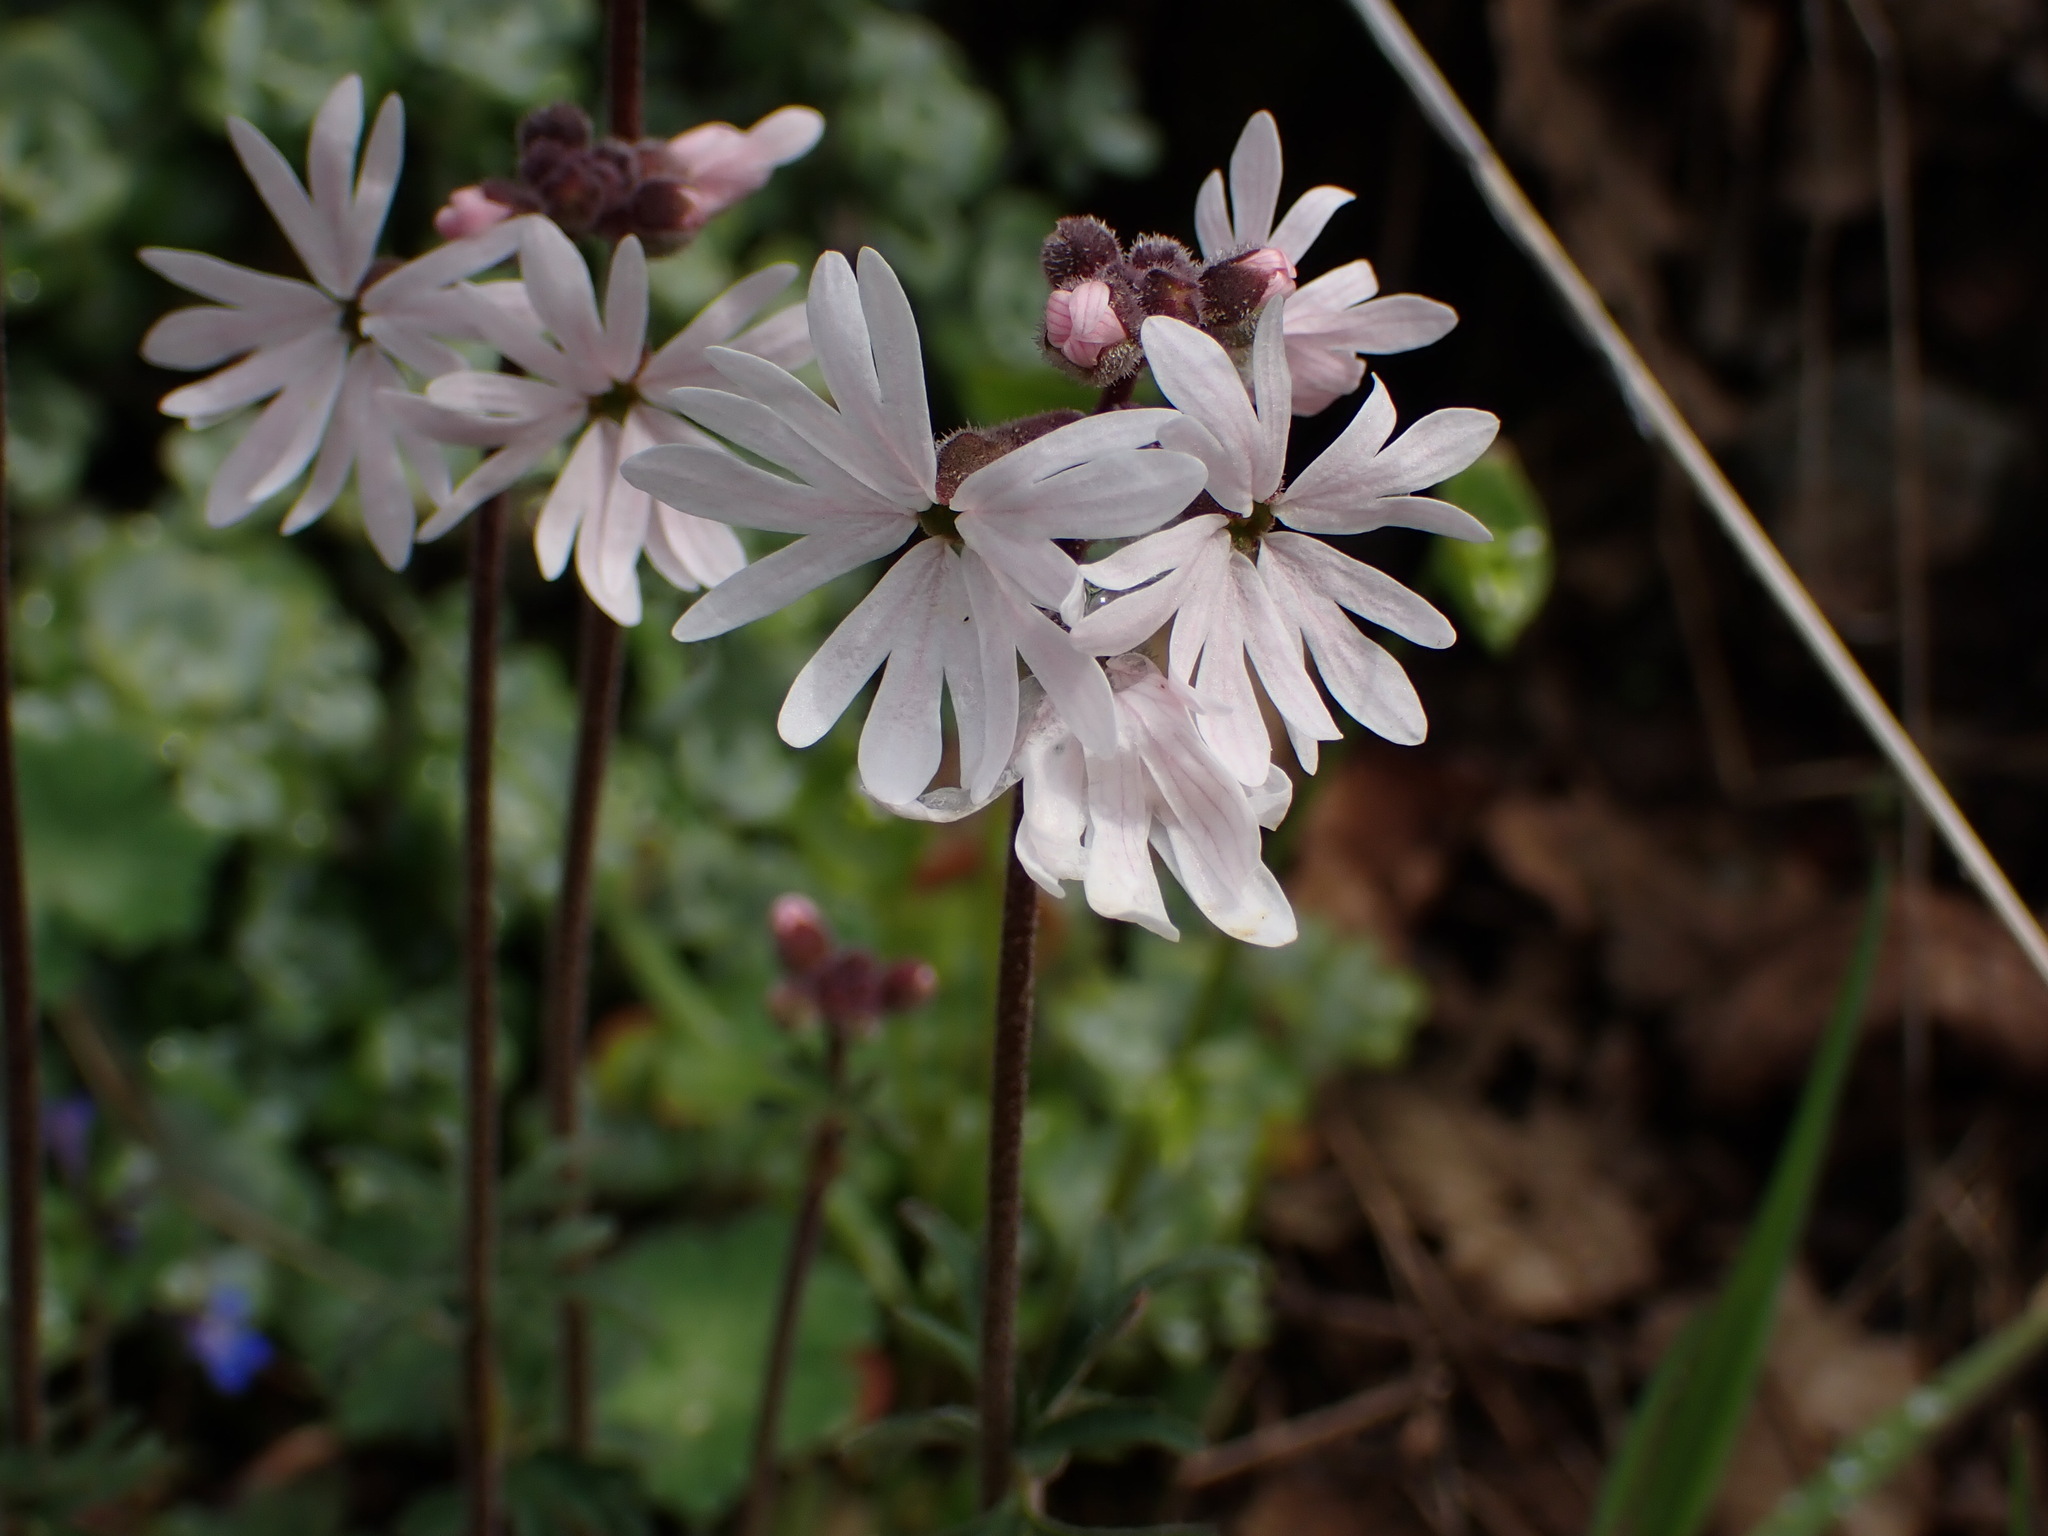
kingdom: Plantae
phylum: Tracheophyta
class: Magnoliopsida
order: Saxifragales
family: Saxifragaceae
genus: Lithophragma
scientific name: Lithophragma parviflorum
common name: Small-flowered fringe-cup
